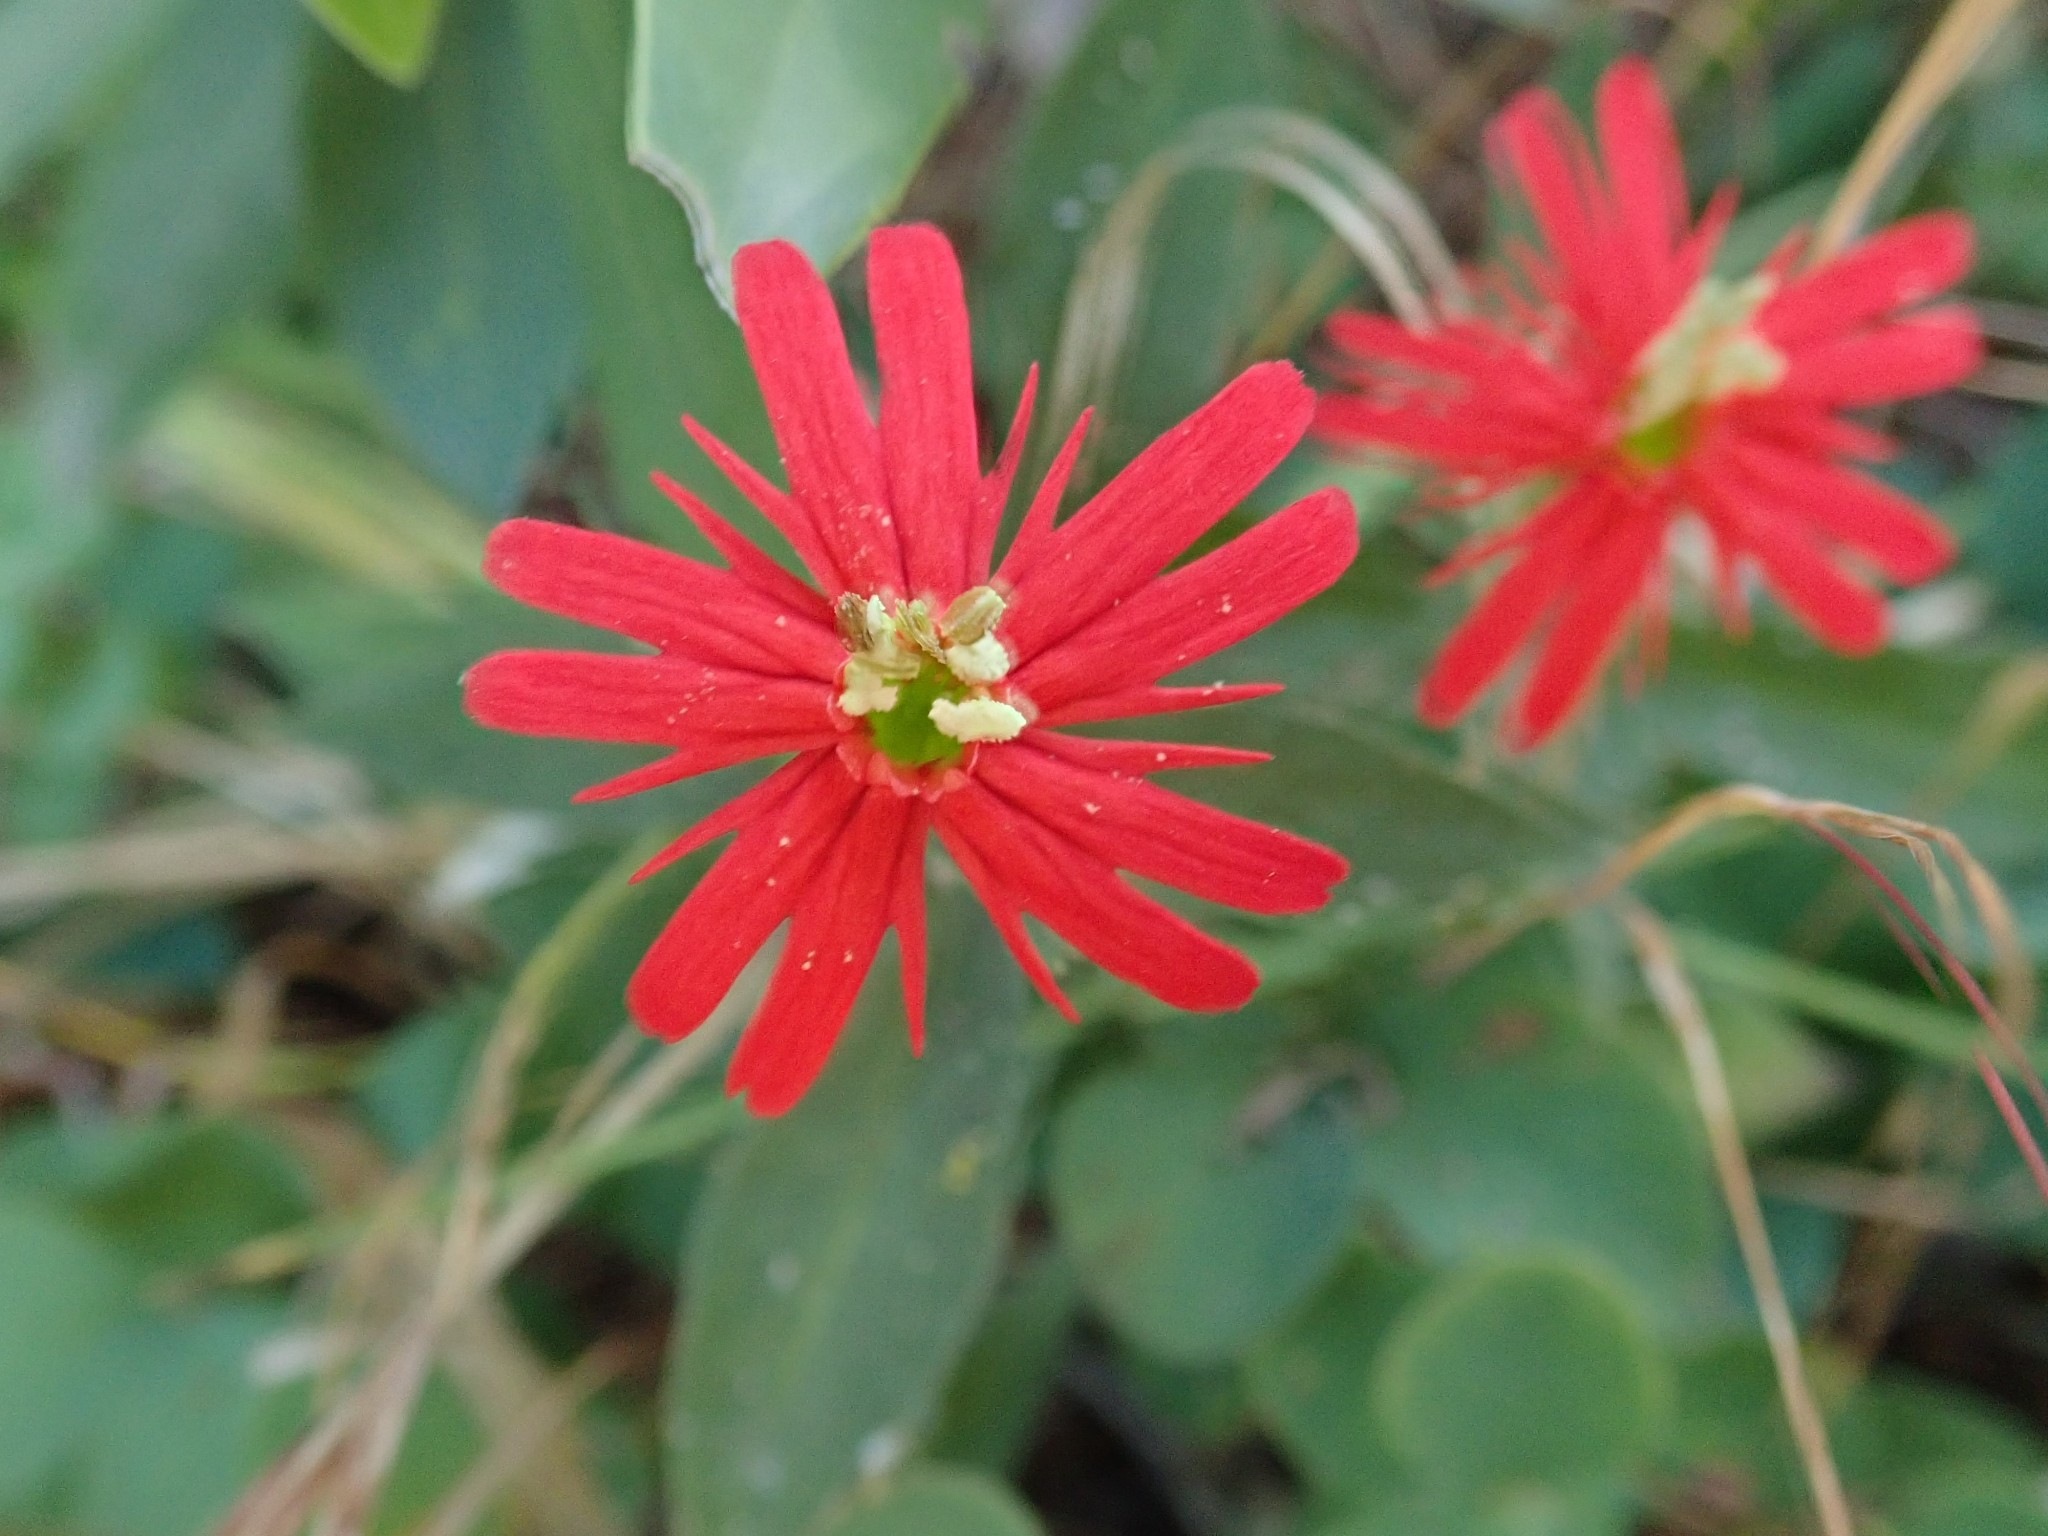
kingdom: Plantae
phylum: Tracheophyta
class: Magnoliopsida
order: Caryophyllales
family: Caryophyllaceae
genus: Silene
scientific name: Silene laciniata
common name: Indian-pink
